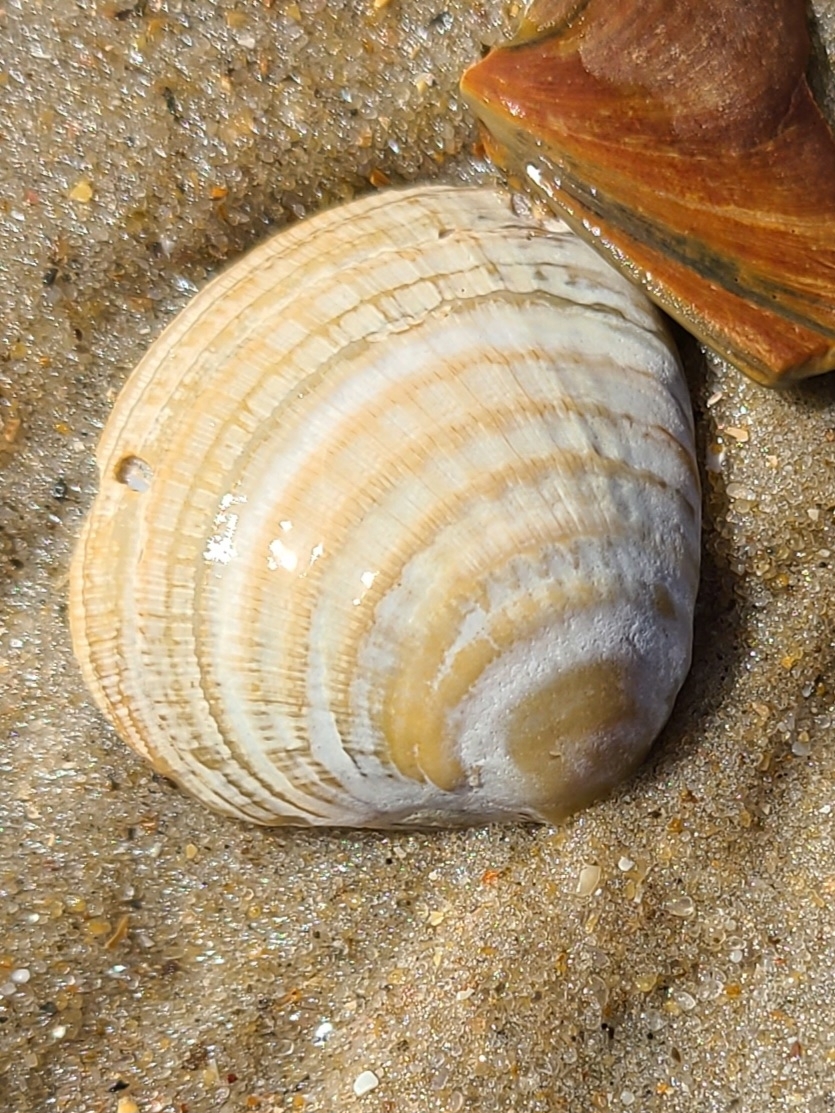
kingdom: Animalia
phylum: Mollusca
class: Bivalvia
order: Venerida
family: Veneridae
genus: Chione
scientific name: Chione elevata
